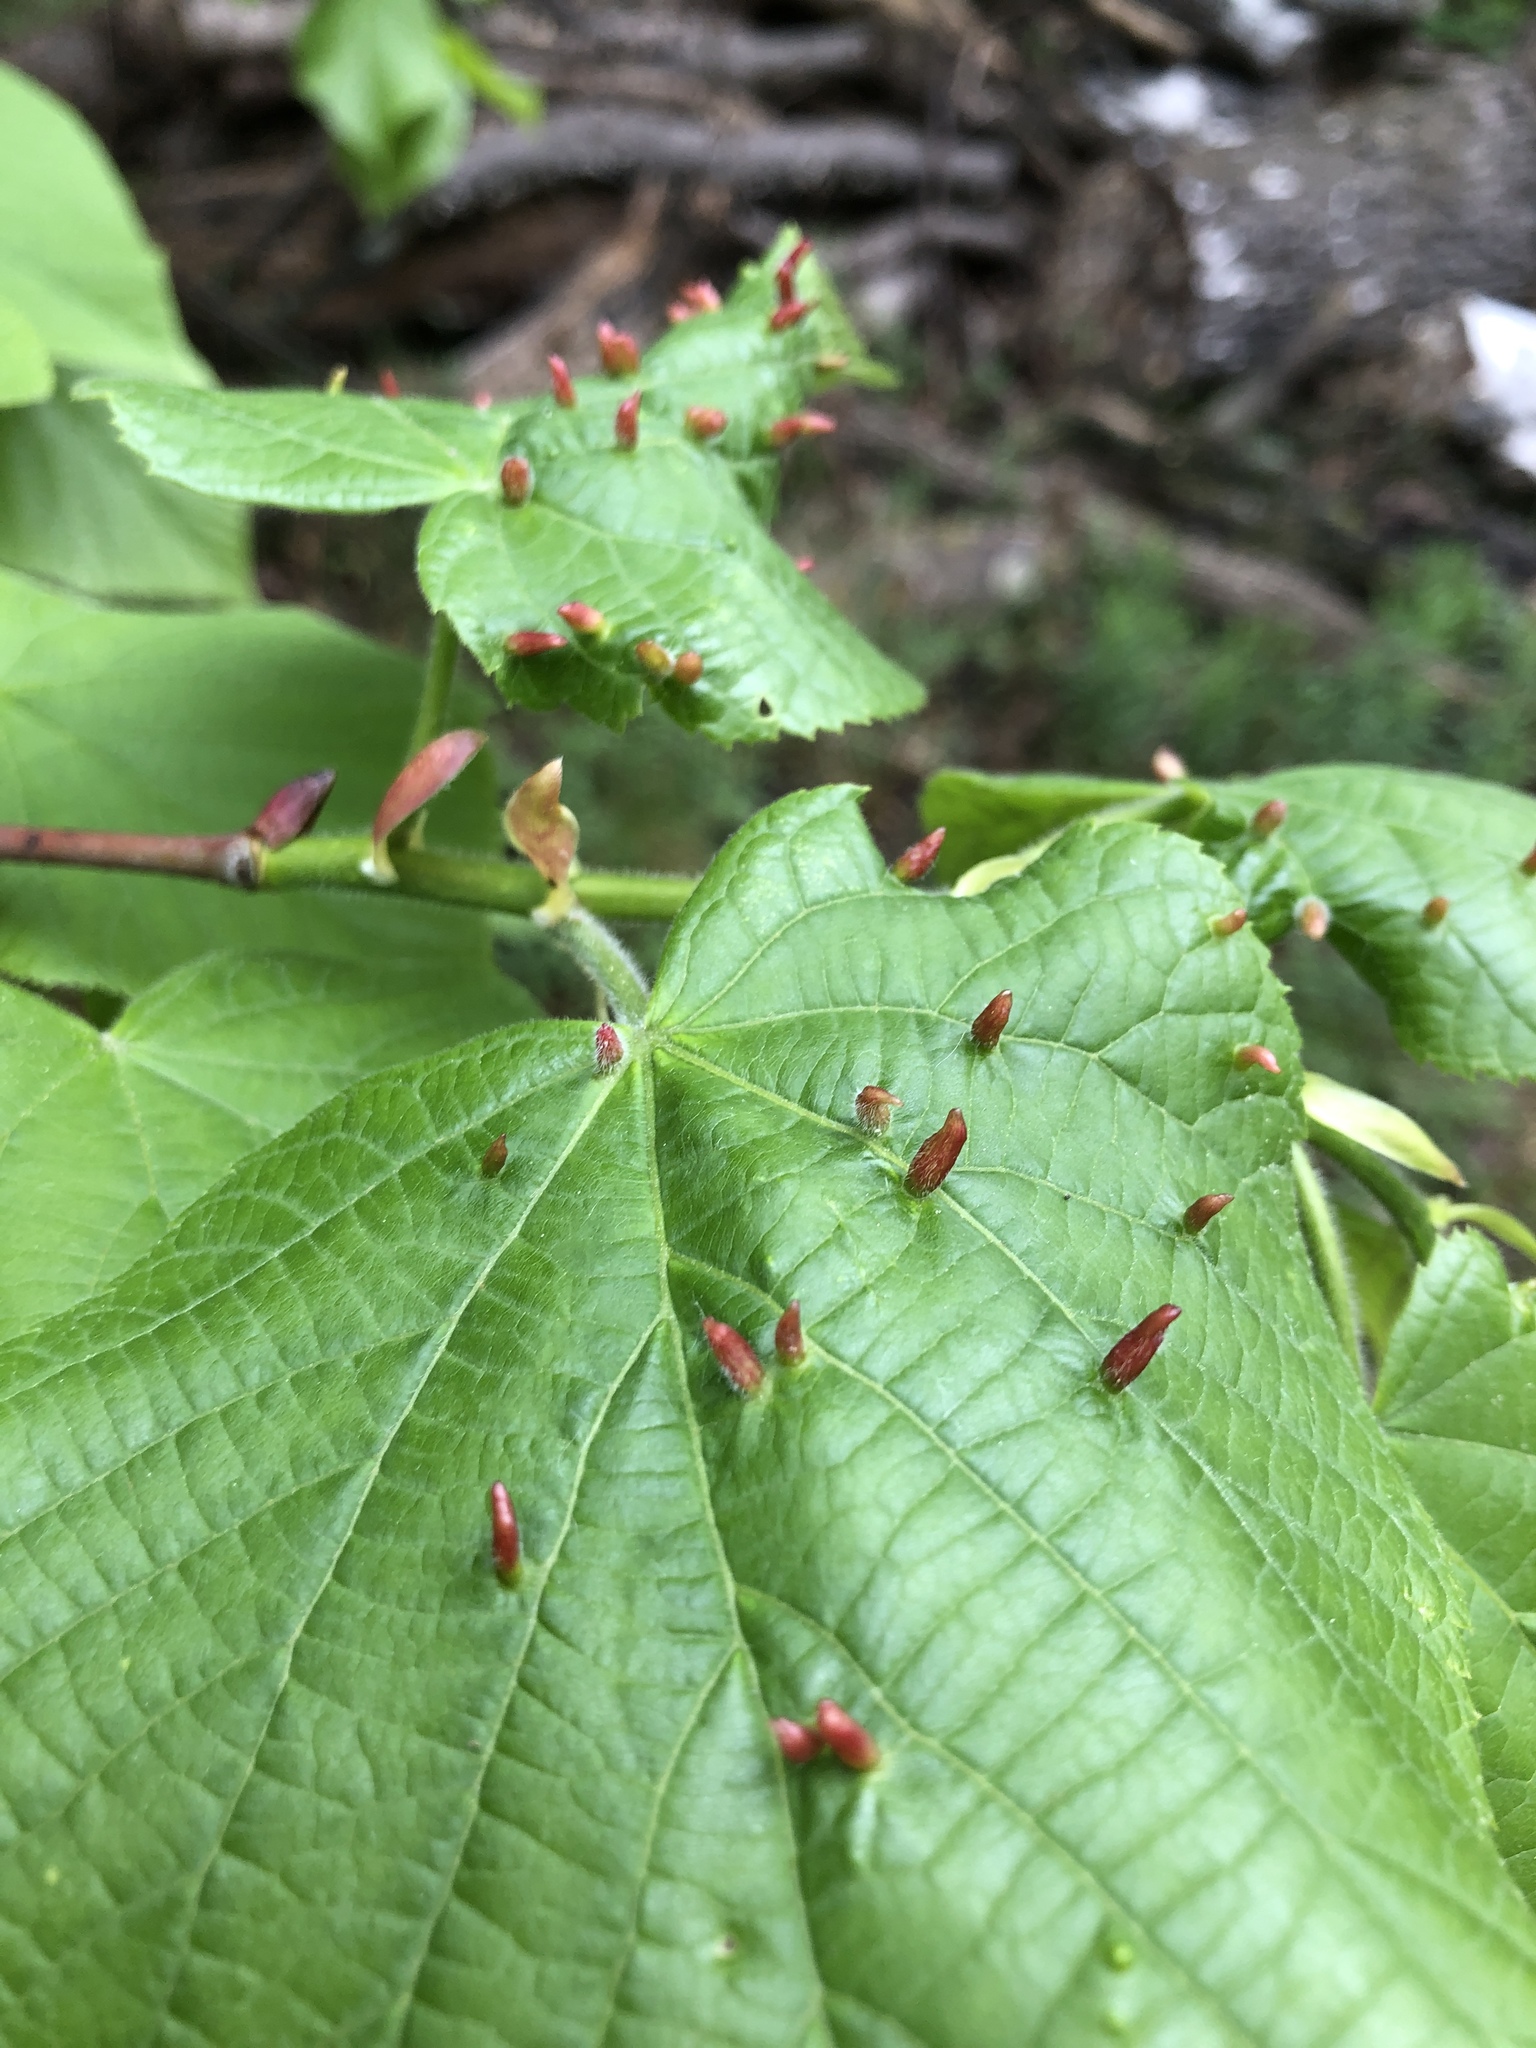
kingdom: Animalia
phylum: Arthropoda
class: Arachnida
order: Trombidiformes
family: Eriophyidae
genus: Eriophyes
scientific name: Eriophyes tiliae
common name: Red nail gall mite
